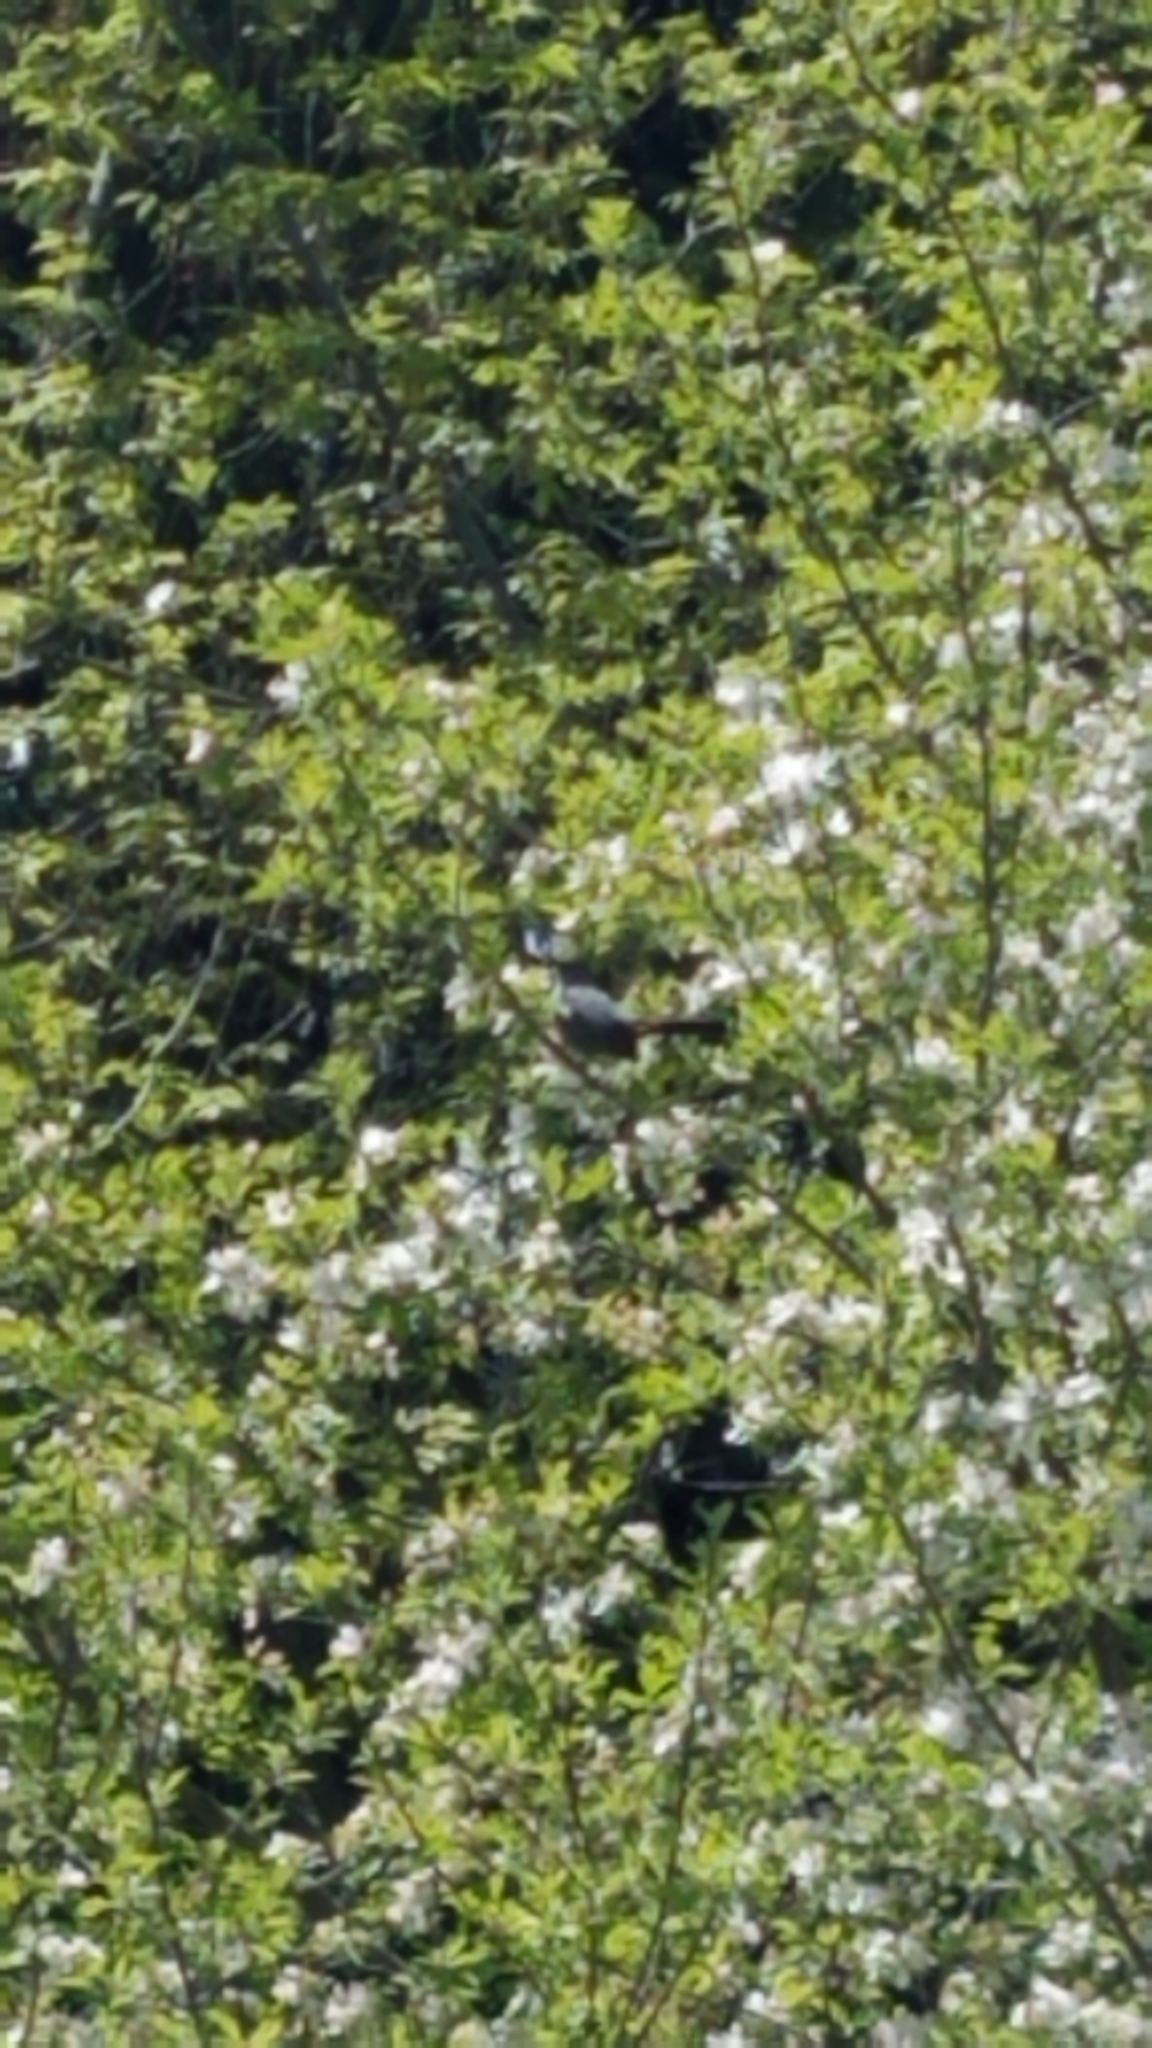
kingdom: Animalia
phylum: Chordata
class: Aves
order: Passeriformes
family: Mimidae
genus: Dumetella
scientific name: Dumetella carolinensis
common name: Gray catbird
